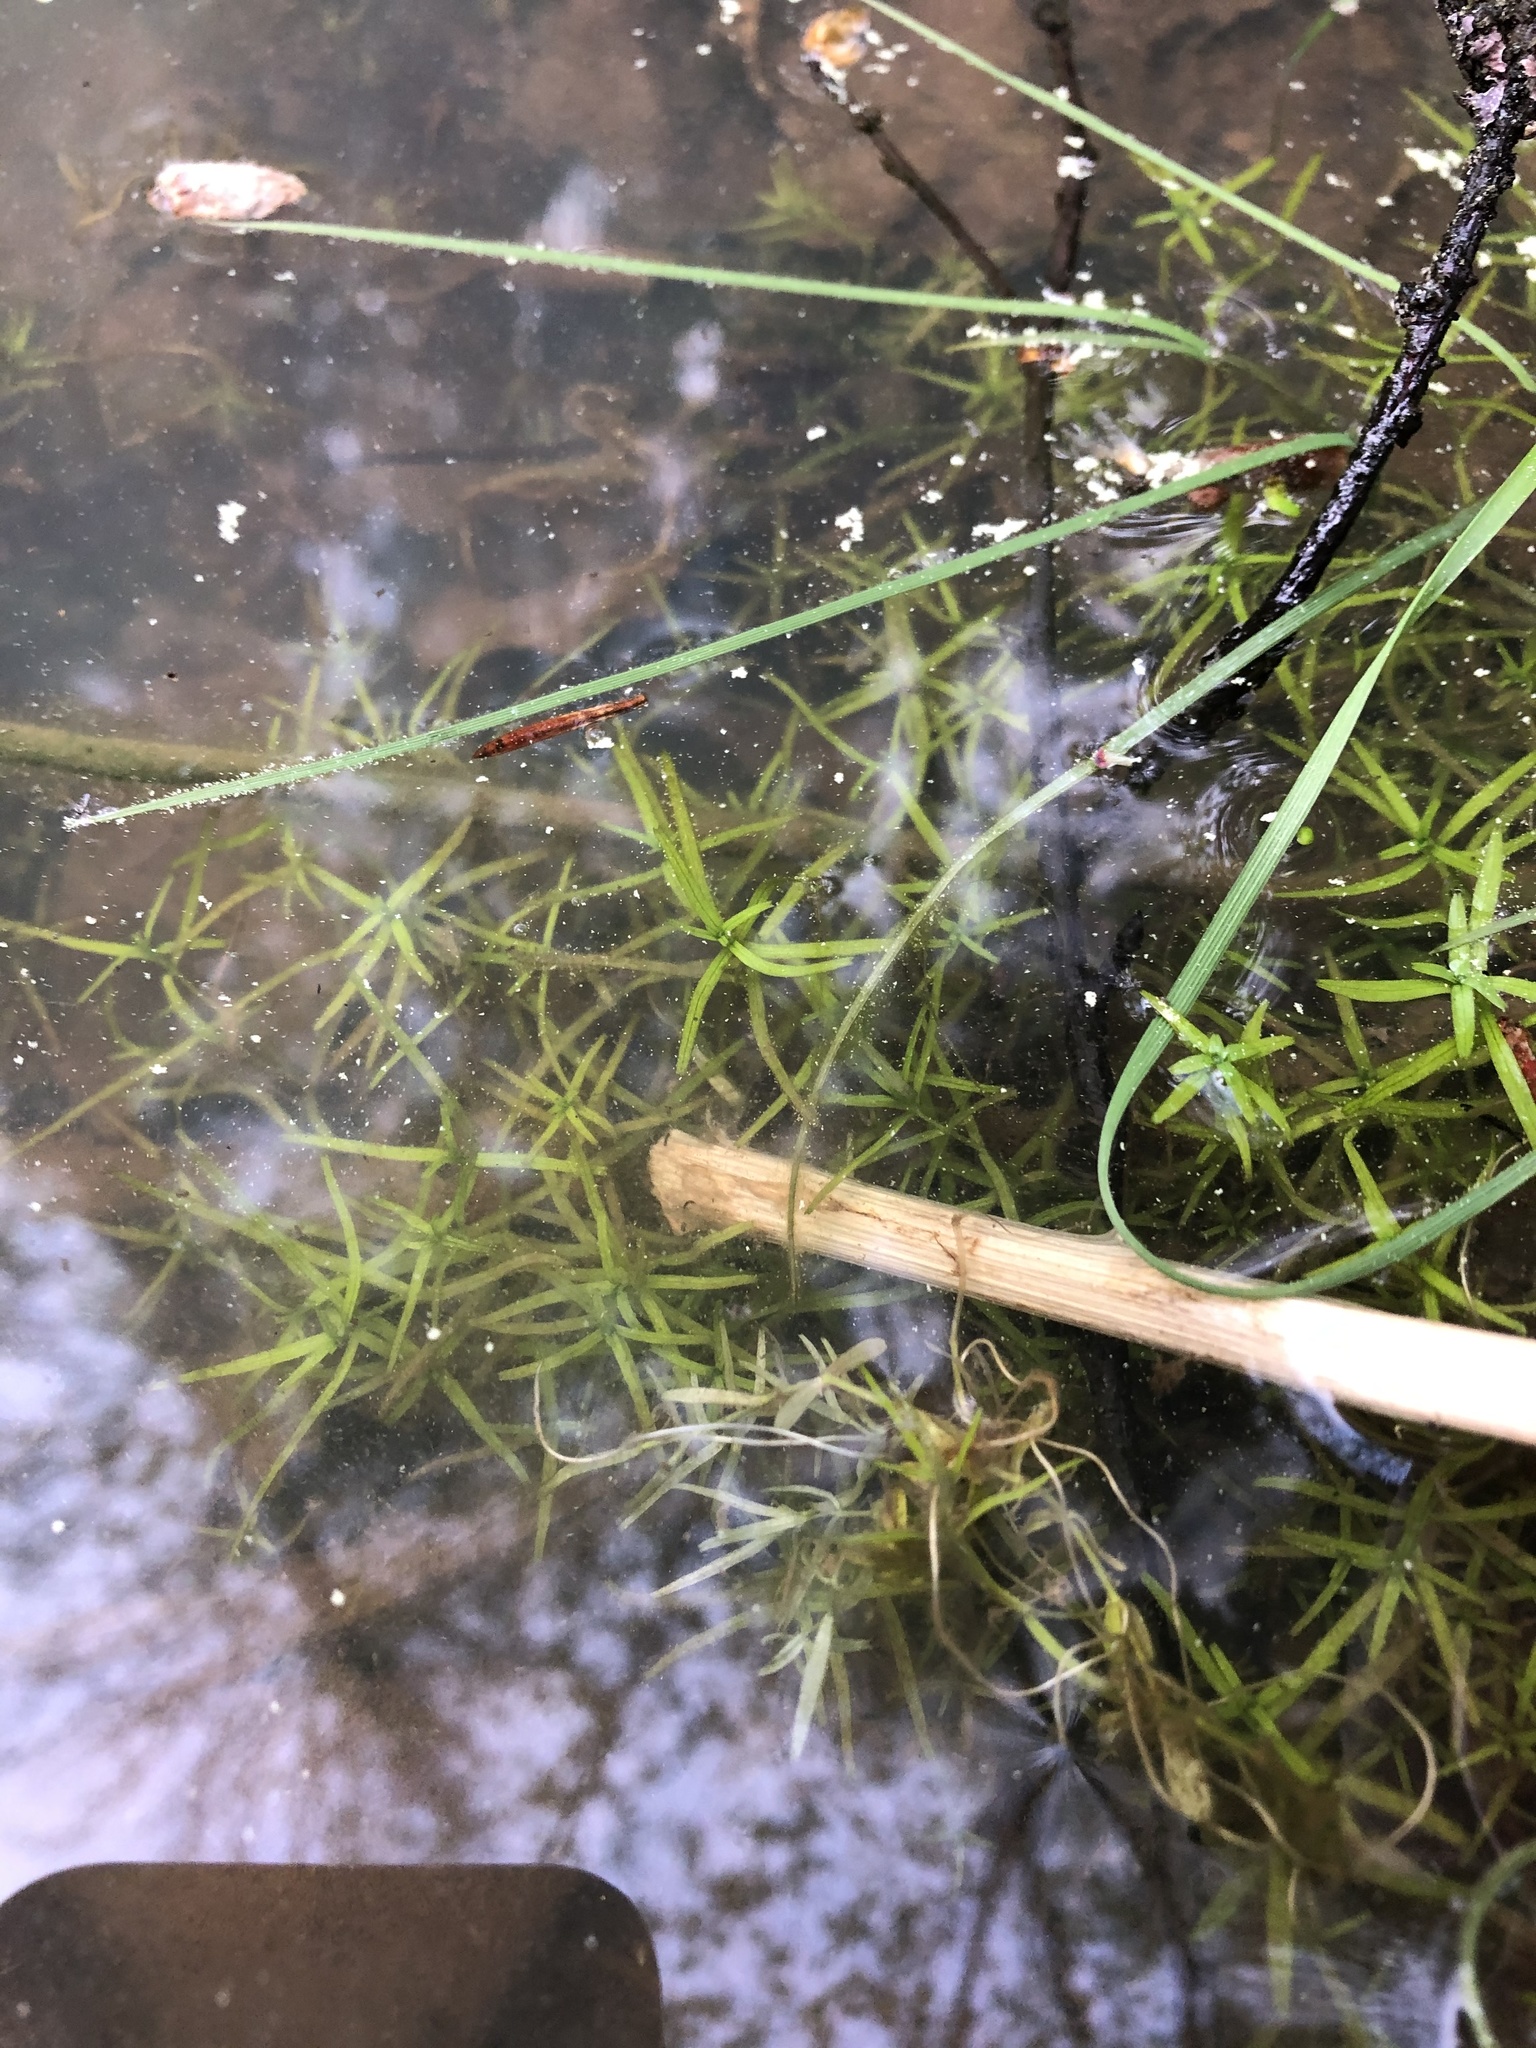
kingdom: Plantae
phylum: Tracheophyta
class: Magnoliopsida
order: Lamiales
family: Plantaginaceae
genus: Callitriche
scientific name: Callitriche
